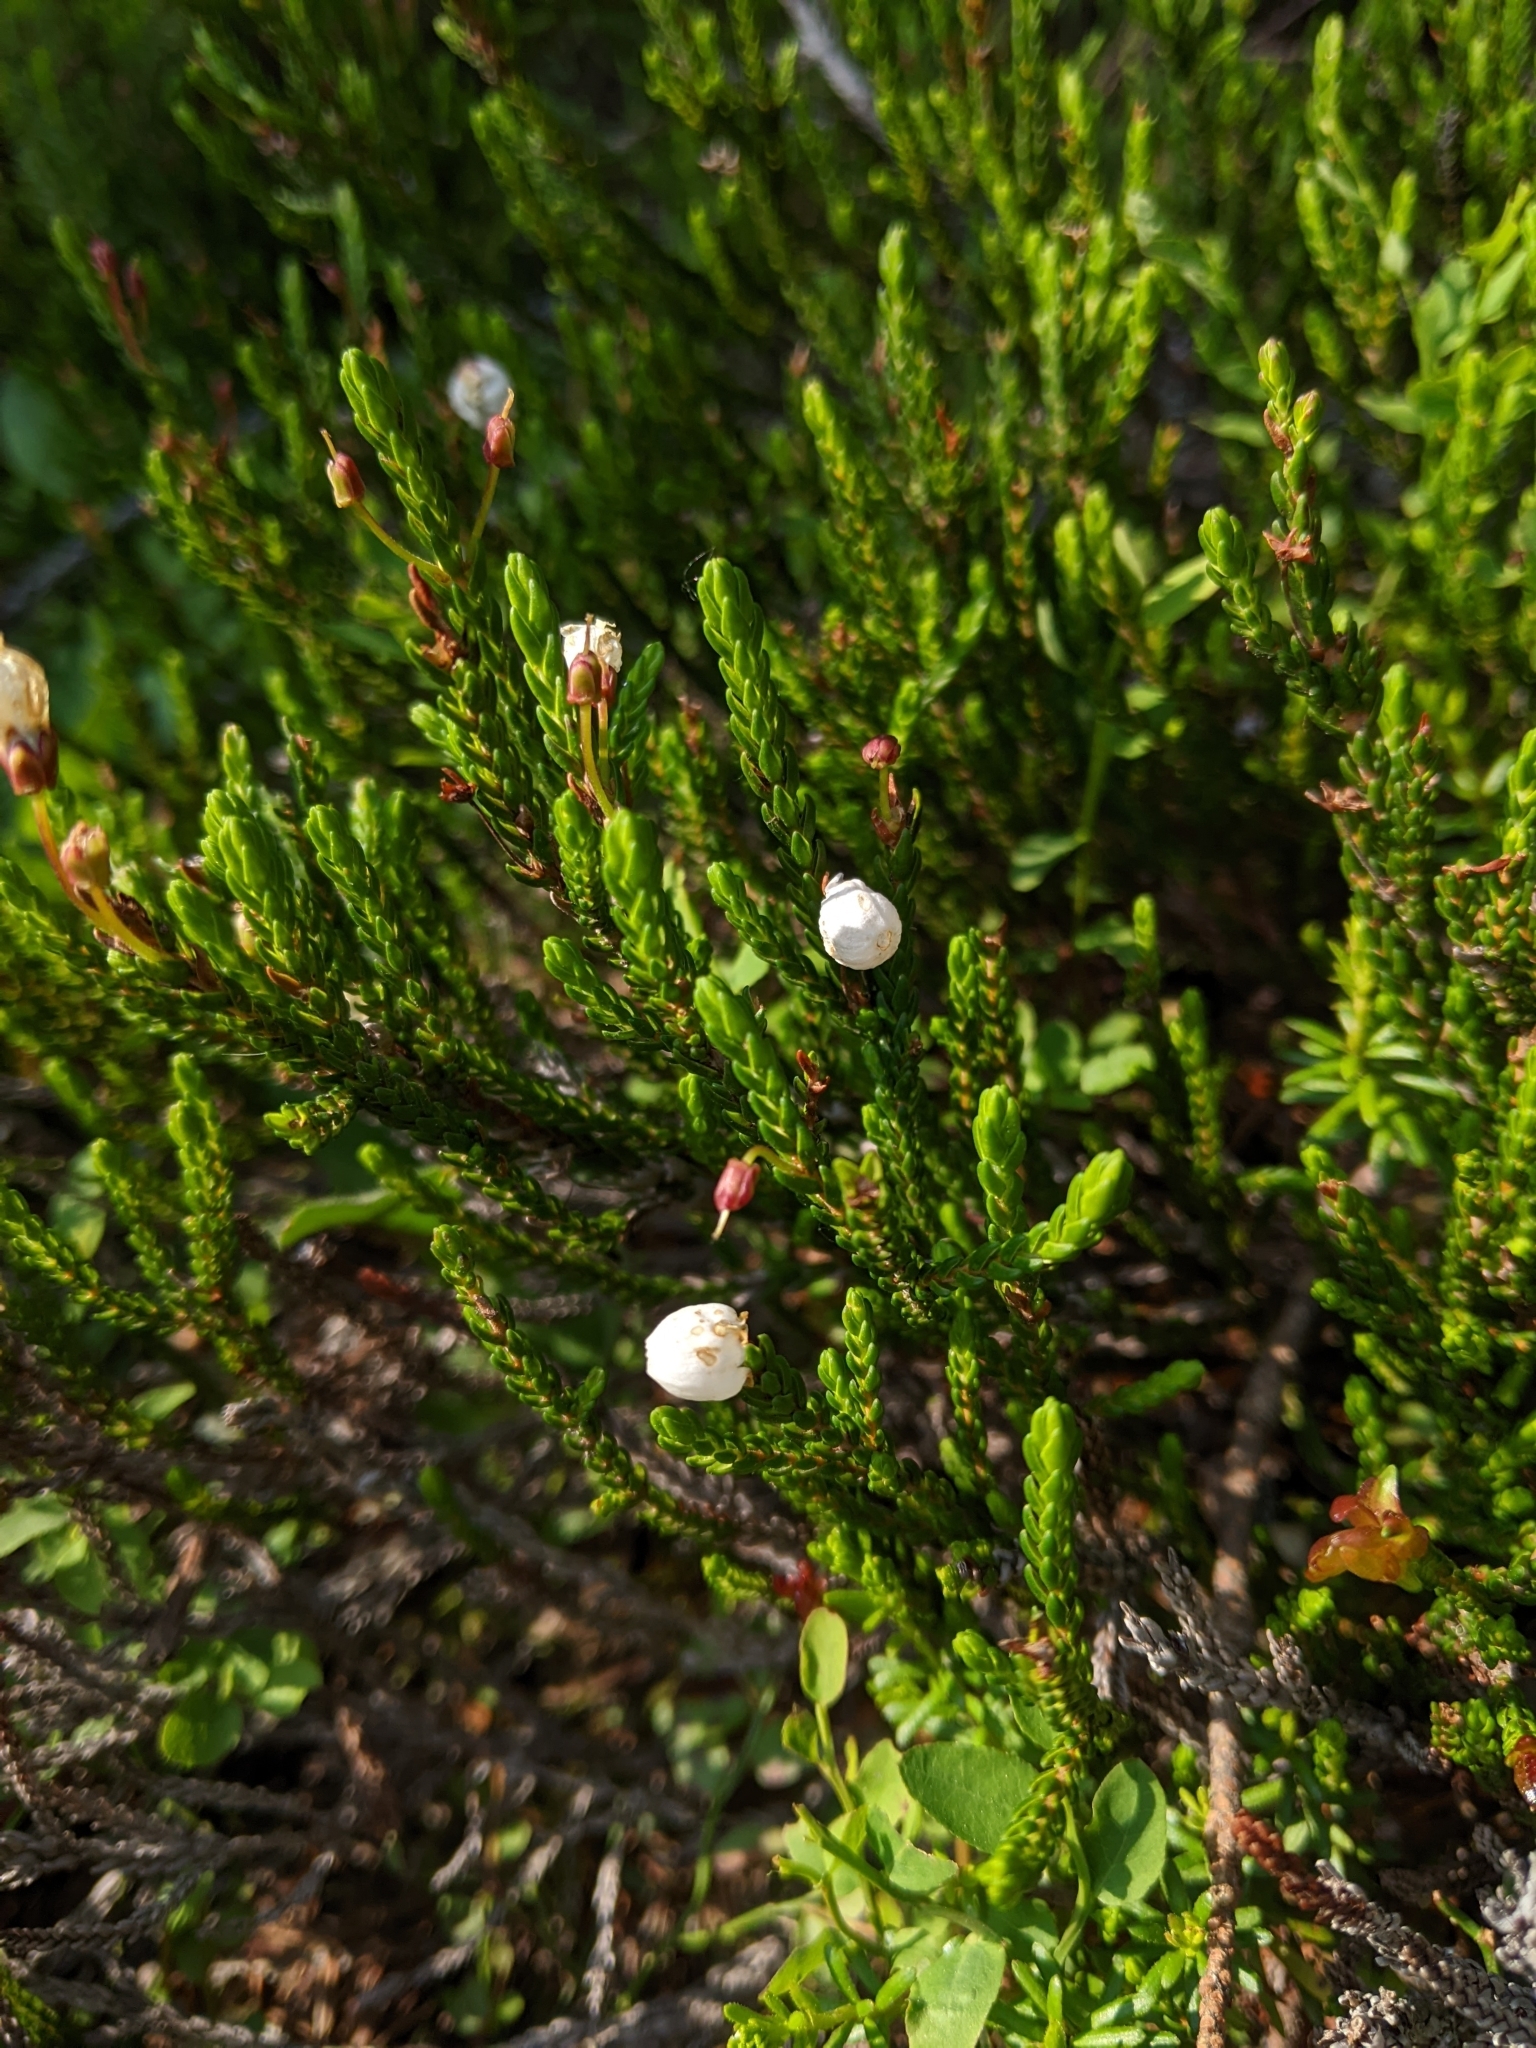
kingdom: Plantae
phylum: Tracheophyta
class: Magnoliopsida
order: Ericales
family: Ericaceae
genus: Cassiope
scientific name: Cassiope mertensiana
